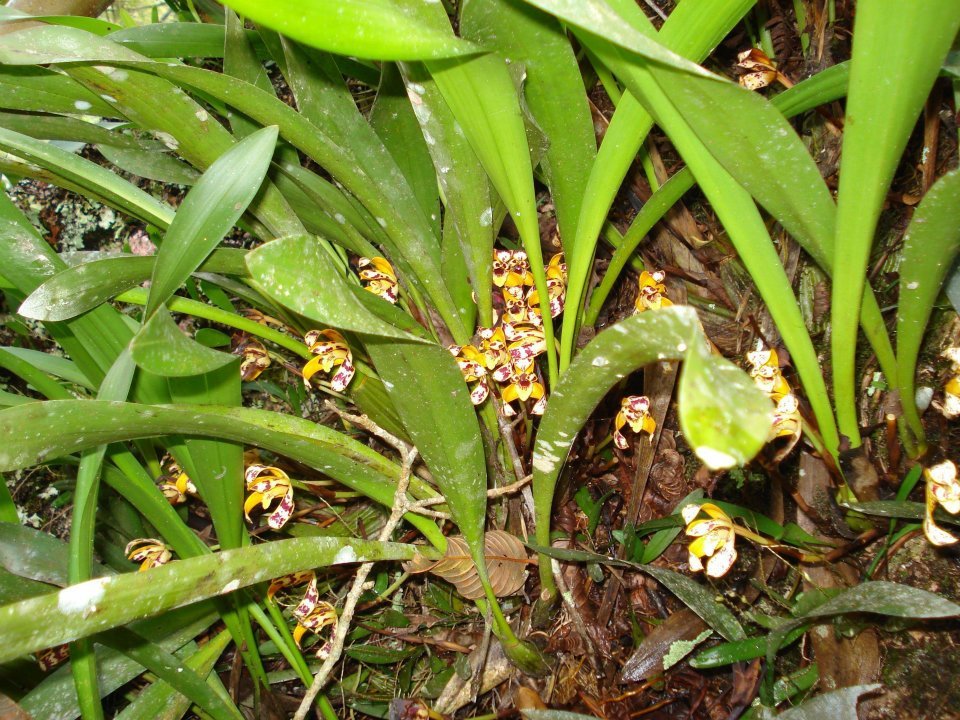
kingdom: Plantae
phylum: Tracheophyta
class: Liliopsida
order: Asparagales
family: Orchidaceae
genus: Maxillaria
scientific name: Maxillaria picta
